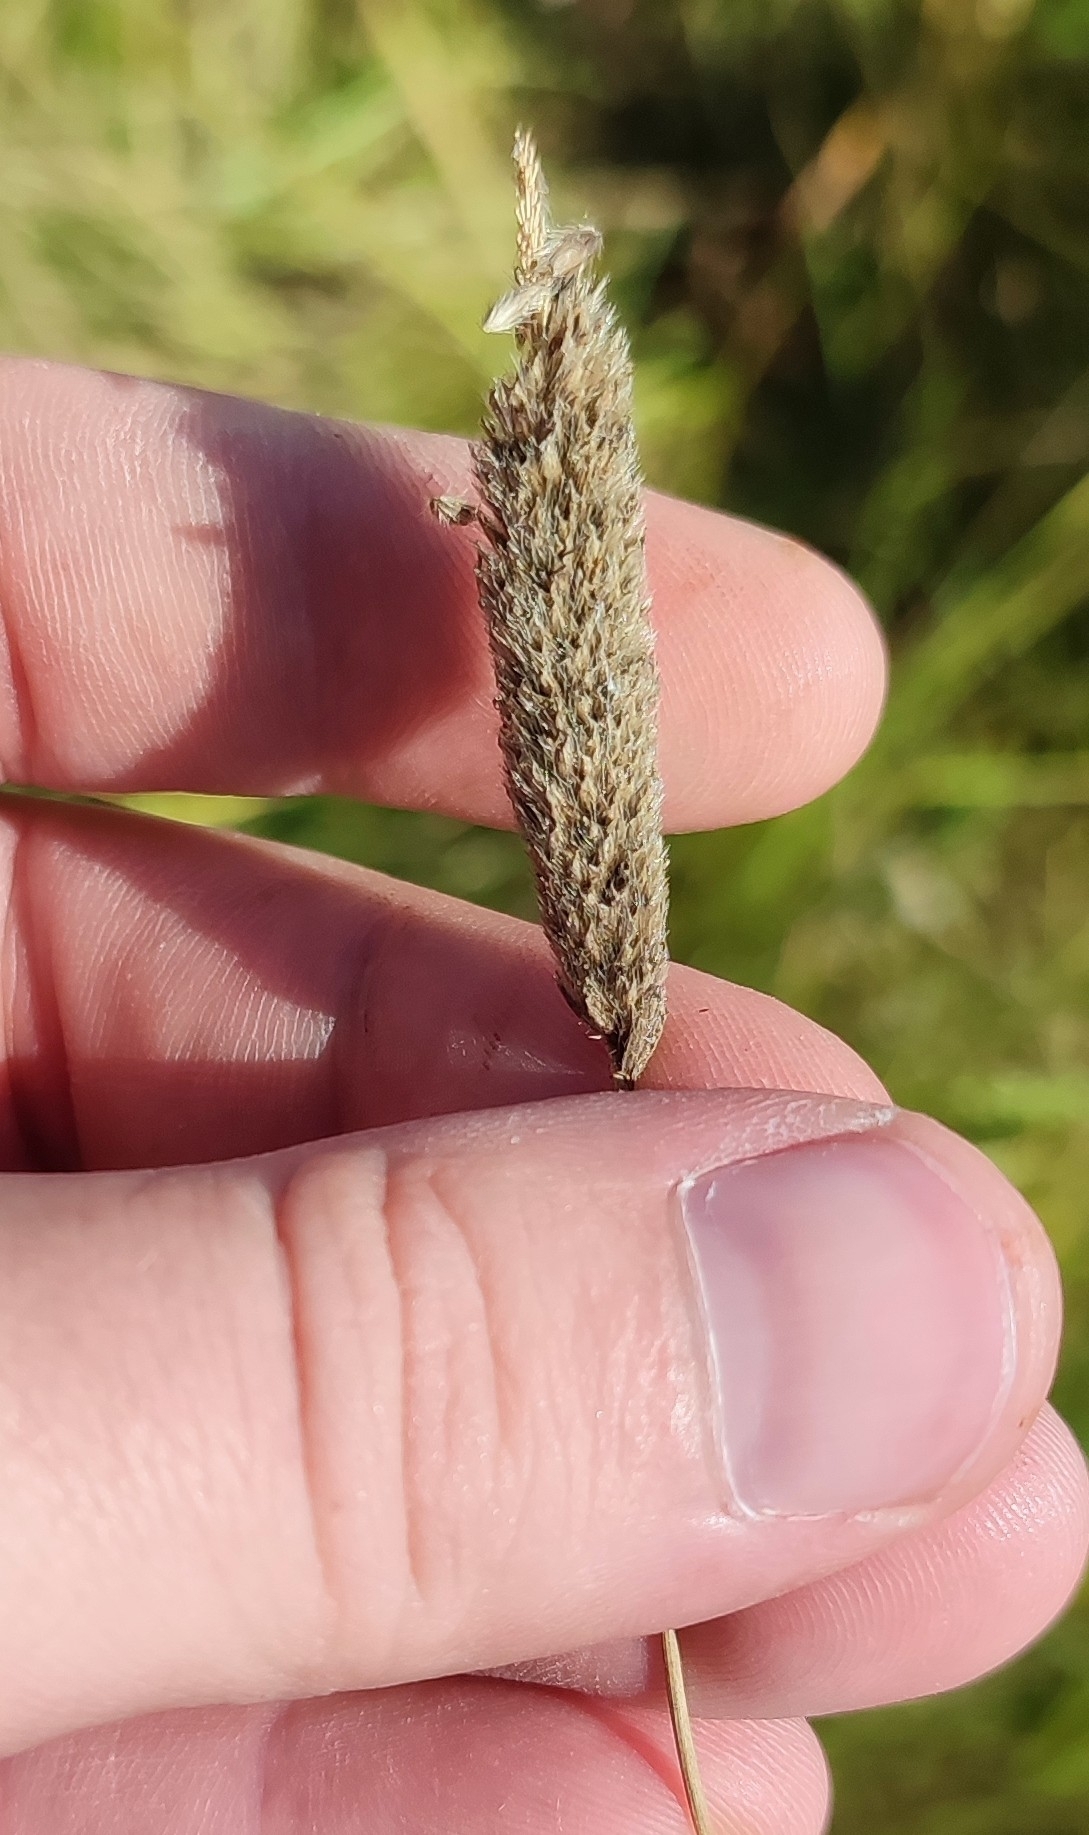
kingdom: Plantae
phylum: Tracheophyta
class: Liliopsida
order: Poales
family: Poaceae
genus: Alopecurus
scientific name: Alopecurus arundinaceus
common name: Creeping meadow foxtail
